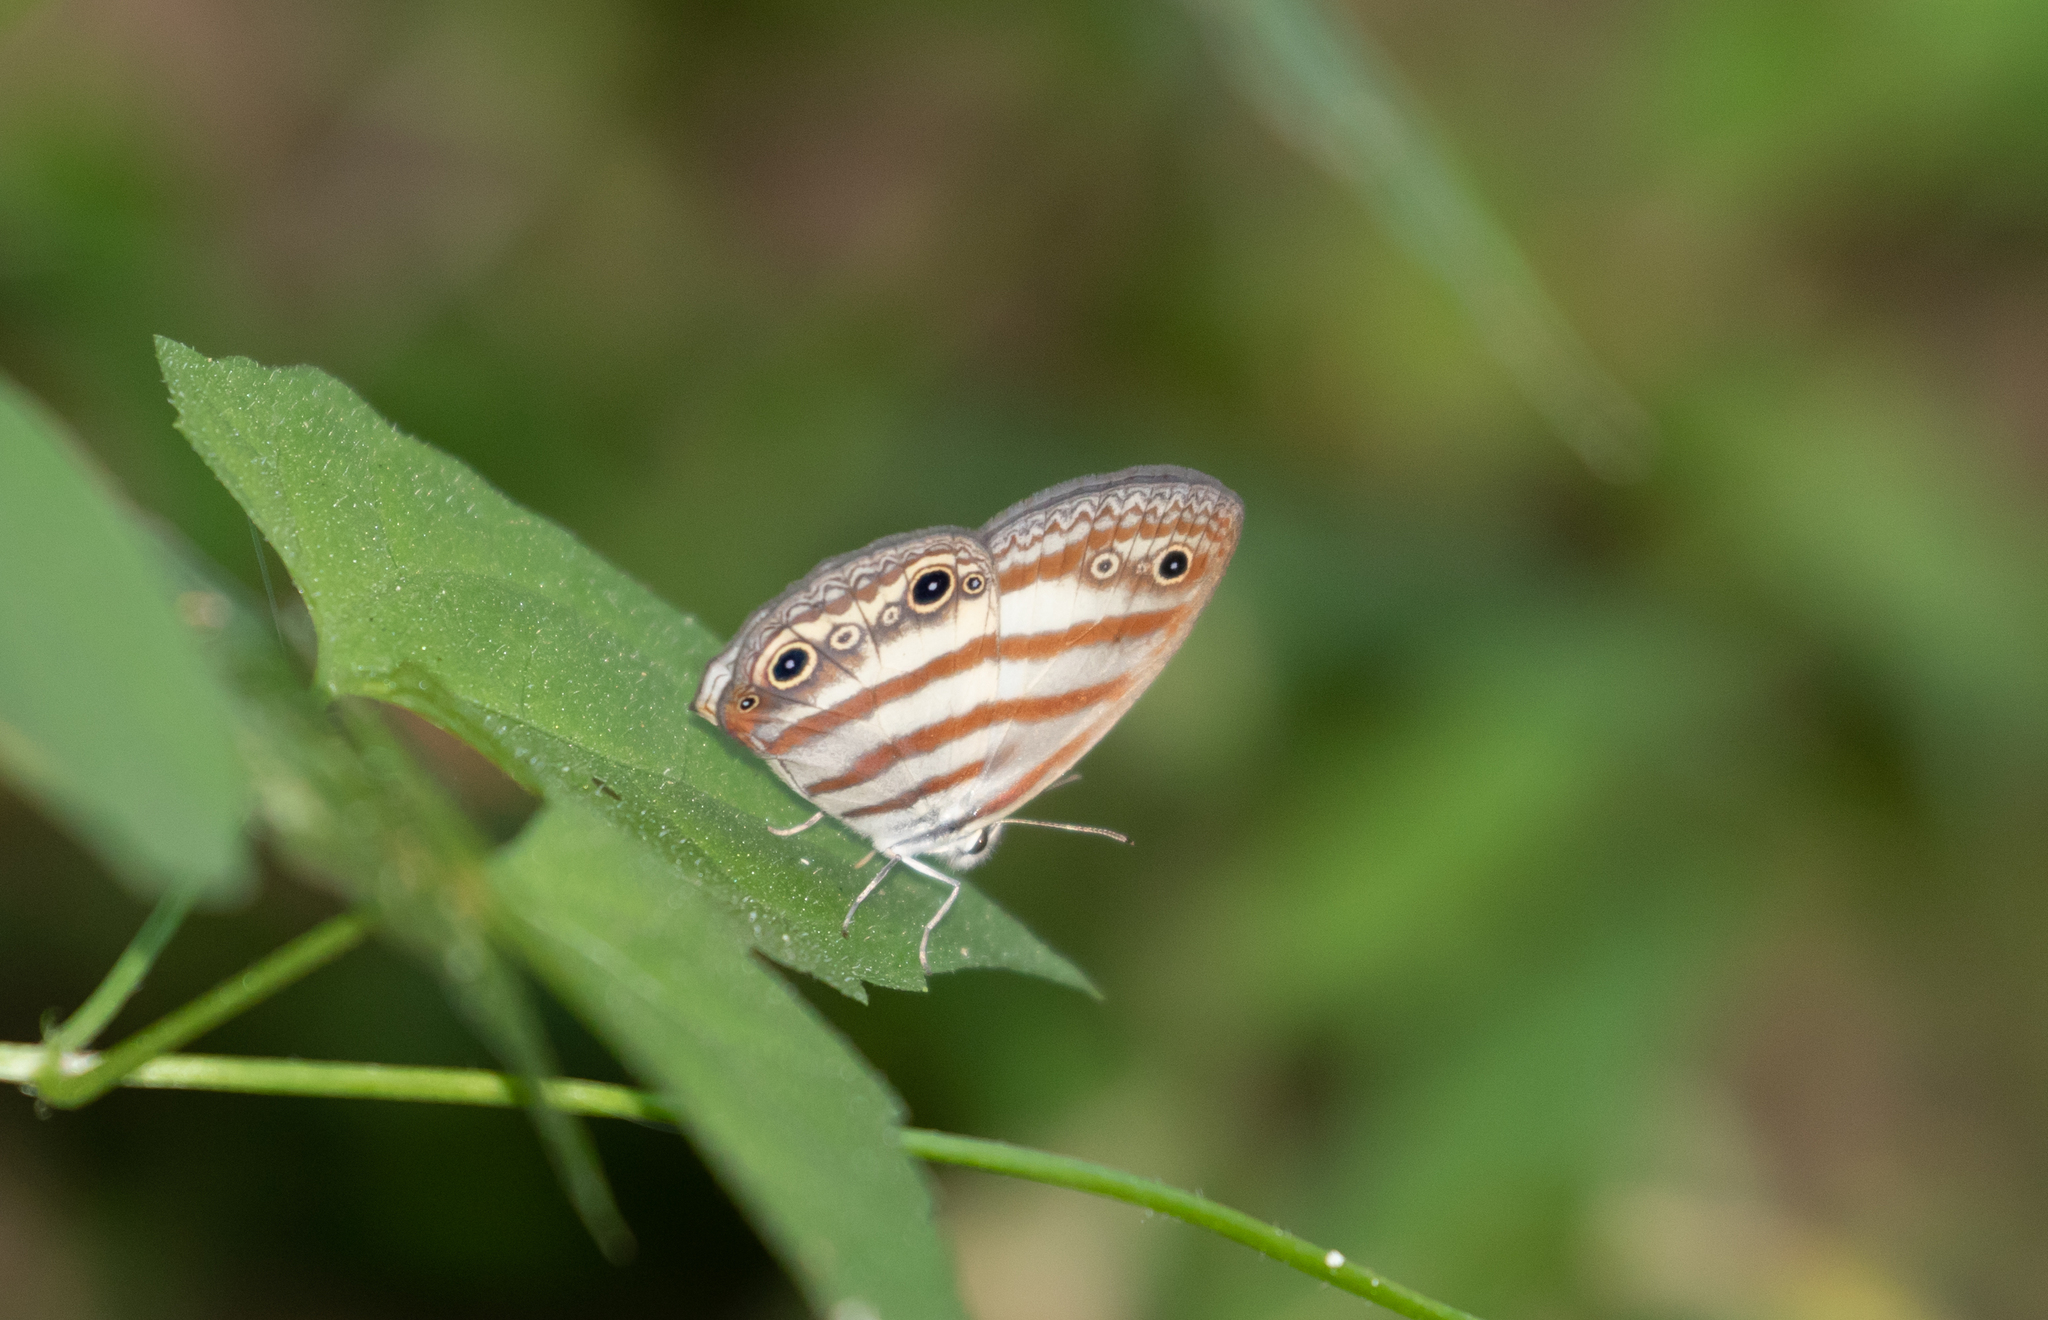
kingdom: Animalia
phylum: Arthropoda
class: Insecta
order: Lepidoptera
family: Nymphalidae
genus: Euptychia
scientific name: Euptychia mollina
